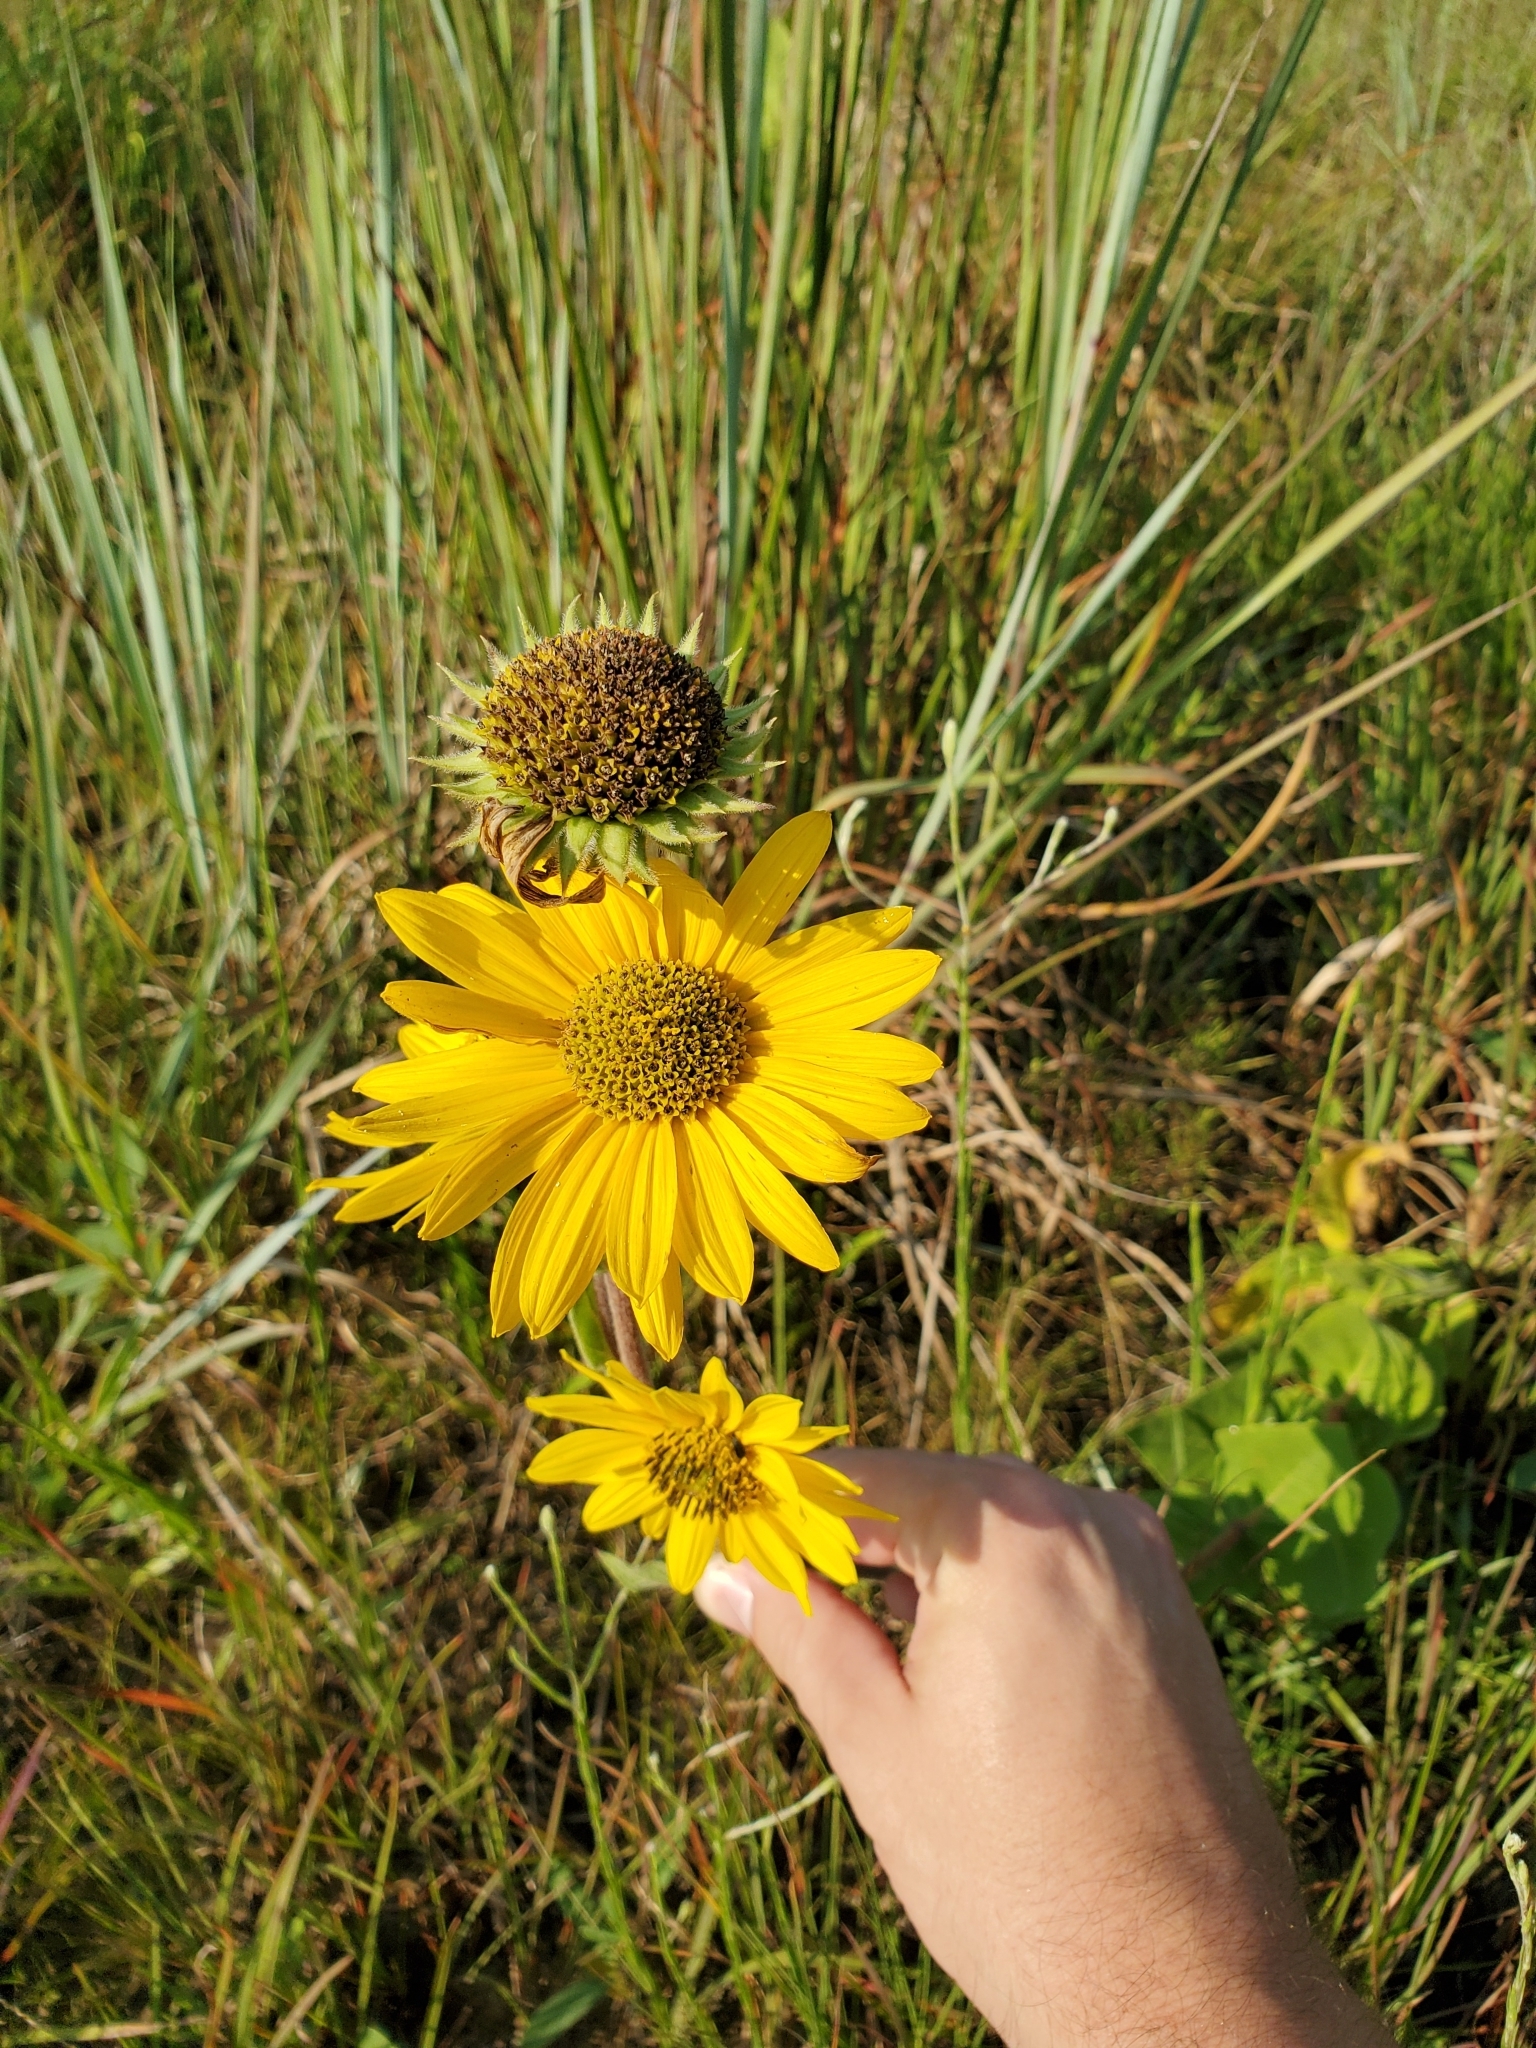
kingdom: Plantae
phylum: Tracheophyta
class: Magnoliopsida
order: Asterales
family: Asteraceae
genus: Helianthus
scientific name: Helianthus mollis
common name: Ashy sunflower
